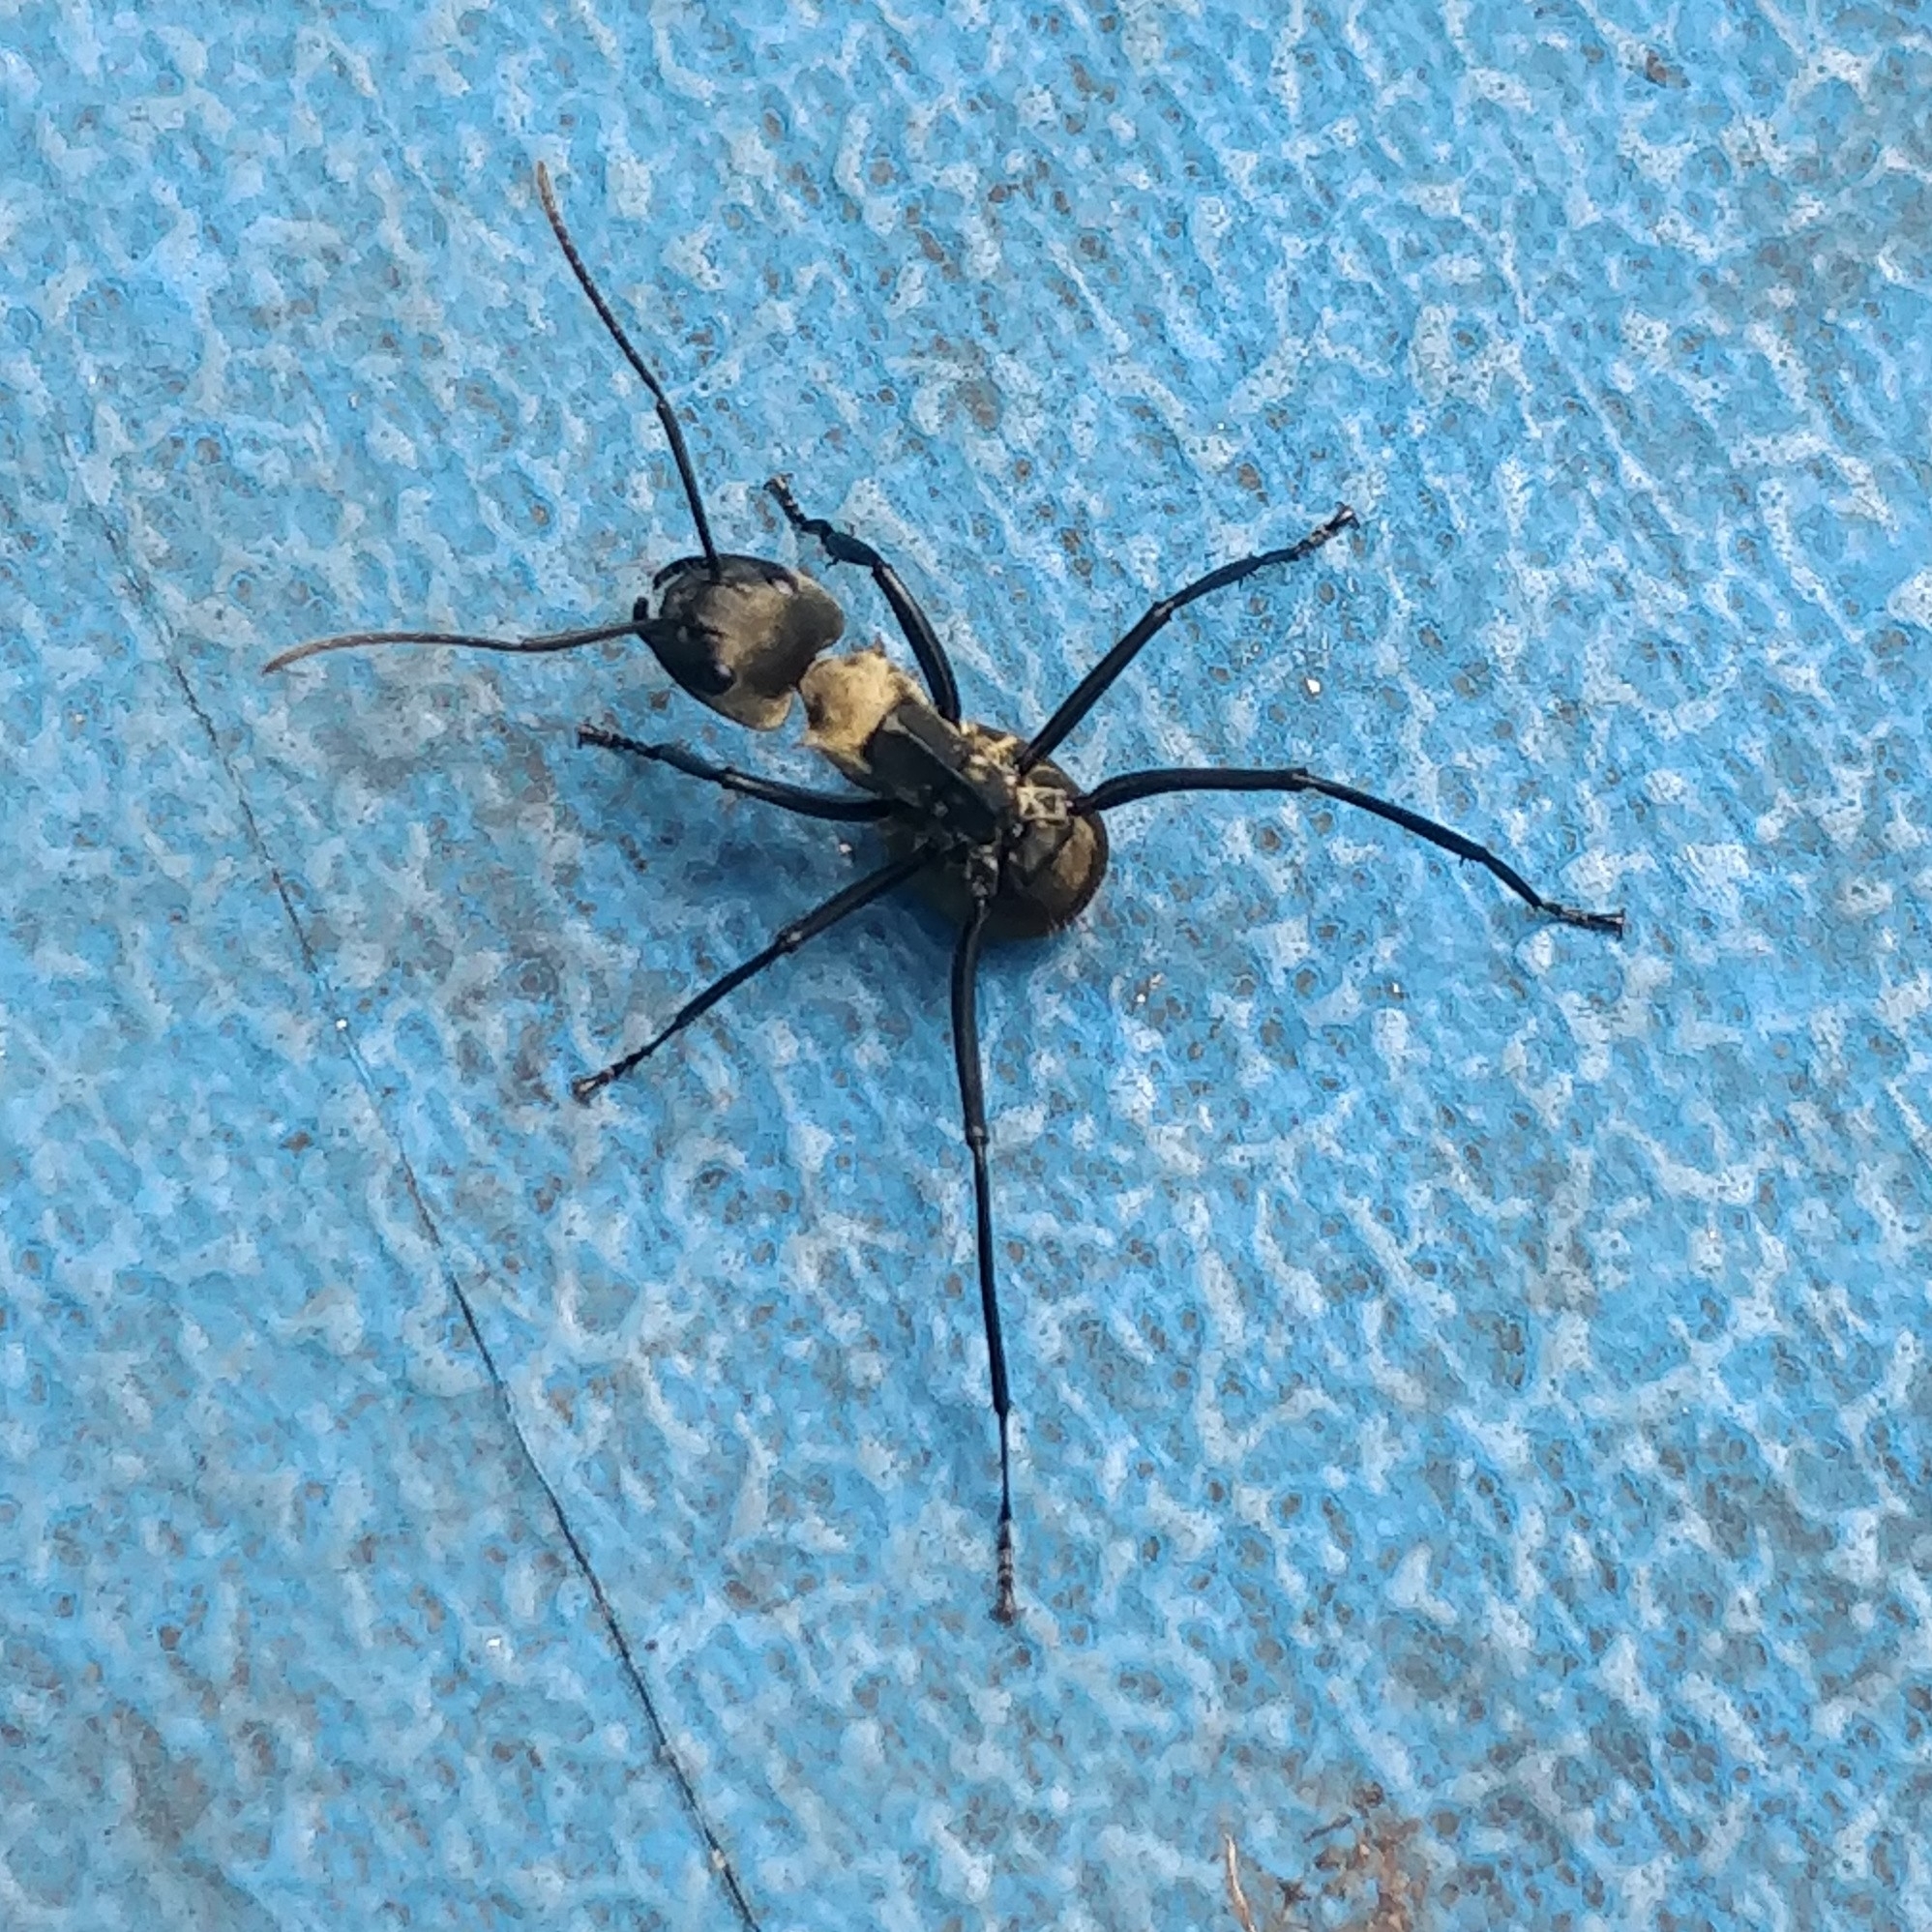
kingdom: Animalia
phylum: Arthropoda
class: Insecta
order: Hymenoptera
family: Formicidae
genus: Camponotus
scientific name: Camponotus sericeiventris
